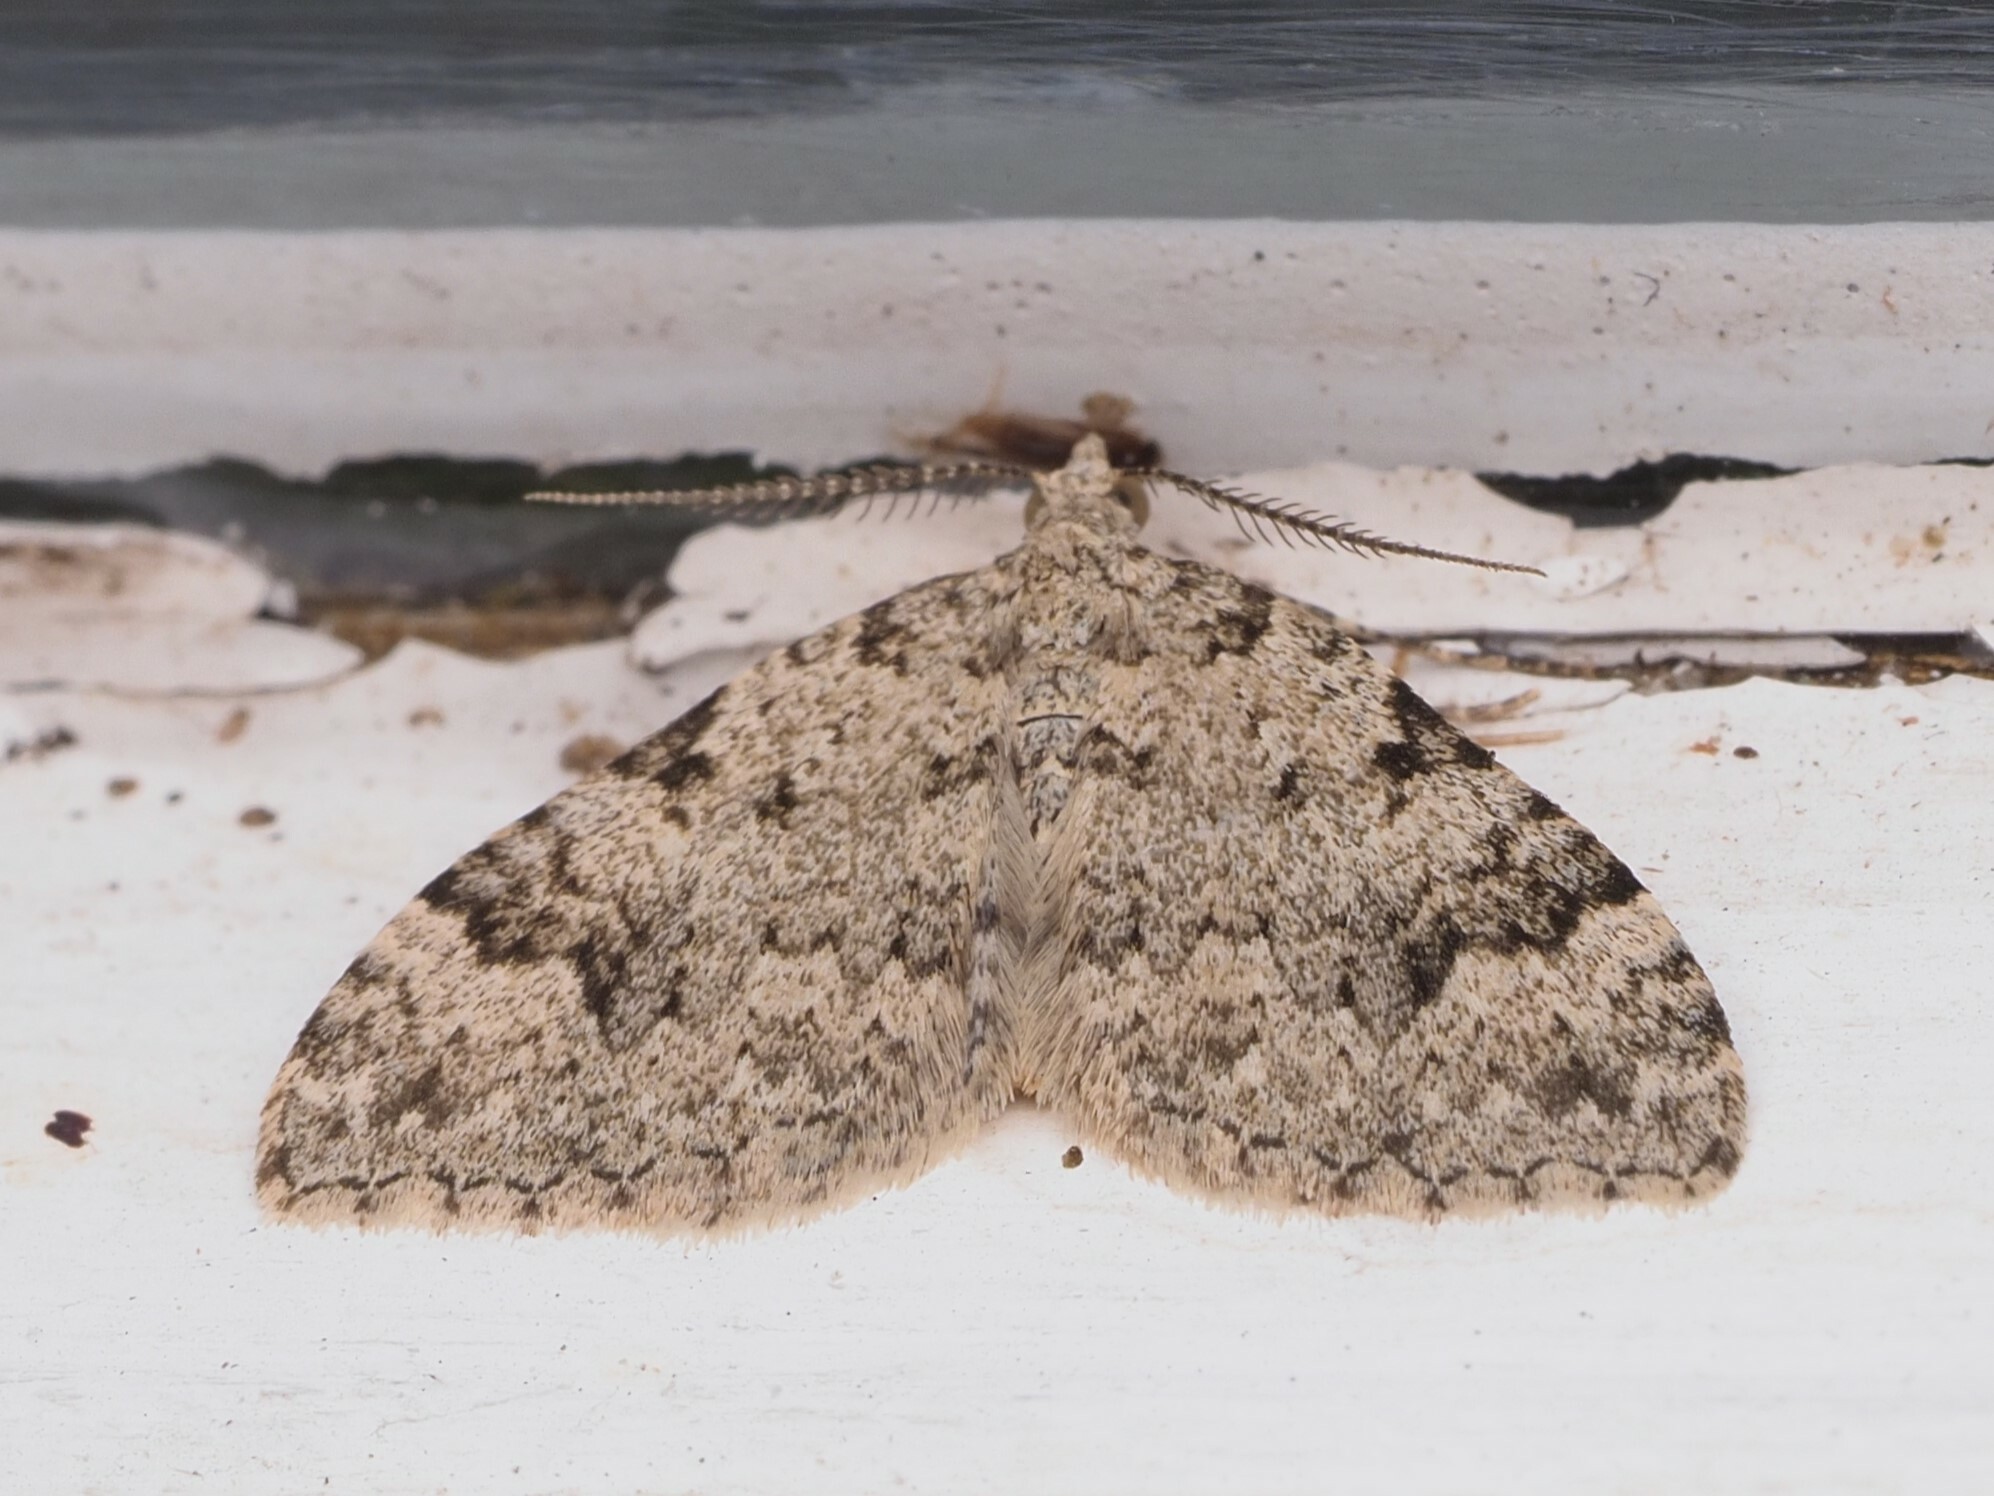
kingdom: Animalia
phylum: Arthropoda
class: Insecta
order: Lepidoptera
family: Geometridae
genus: Helastia
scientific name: Helastia cinerearia
